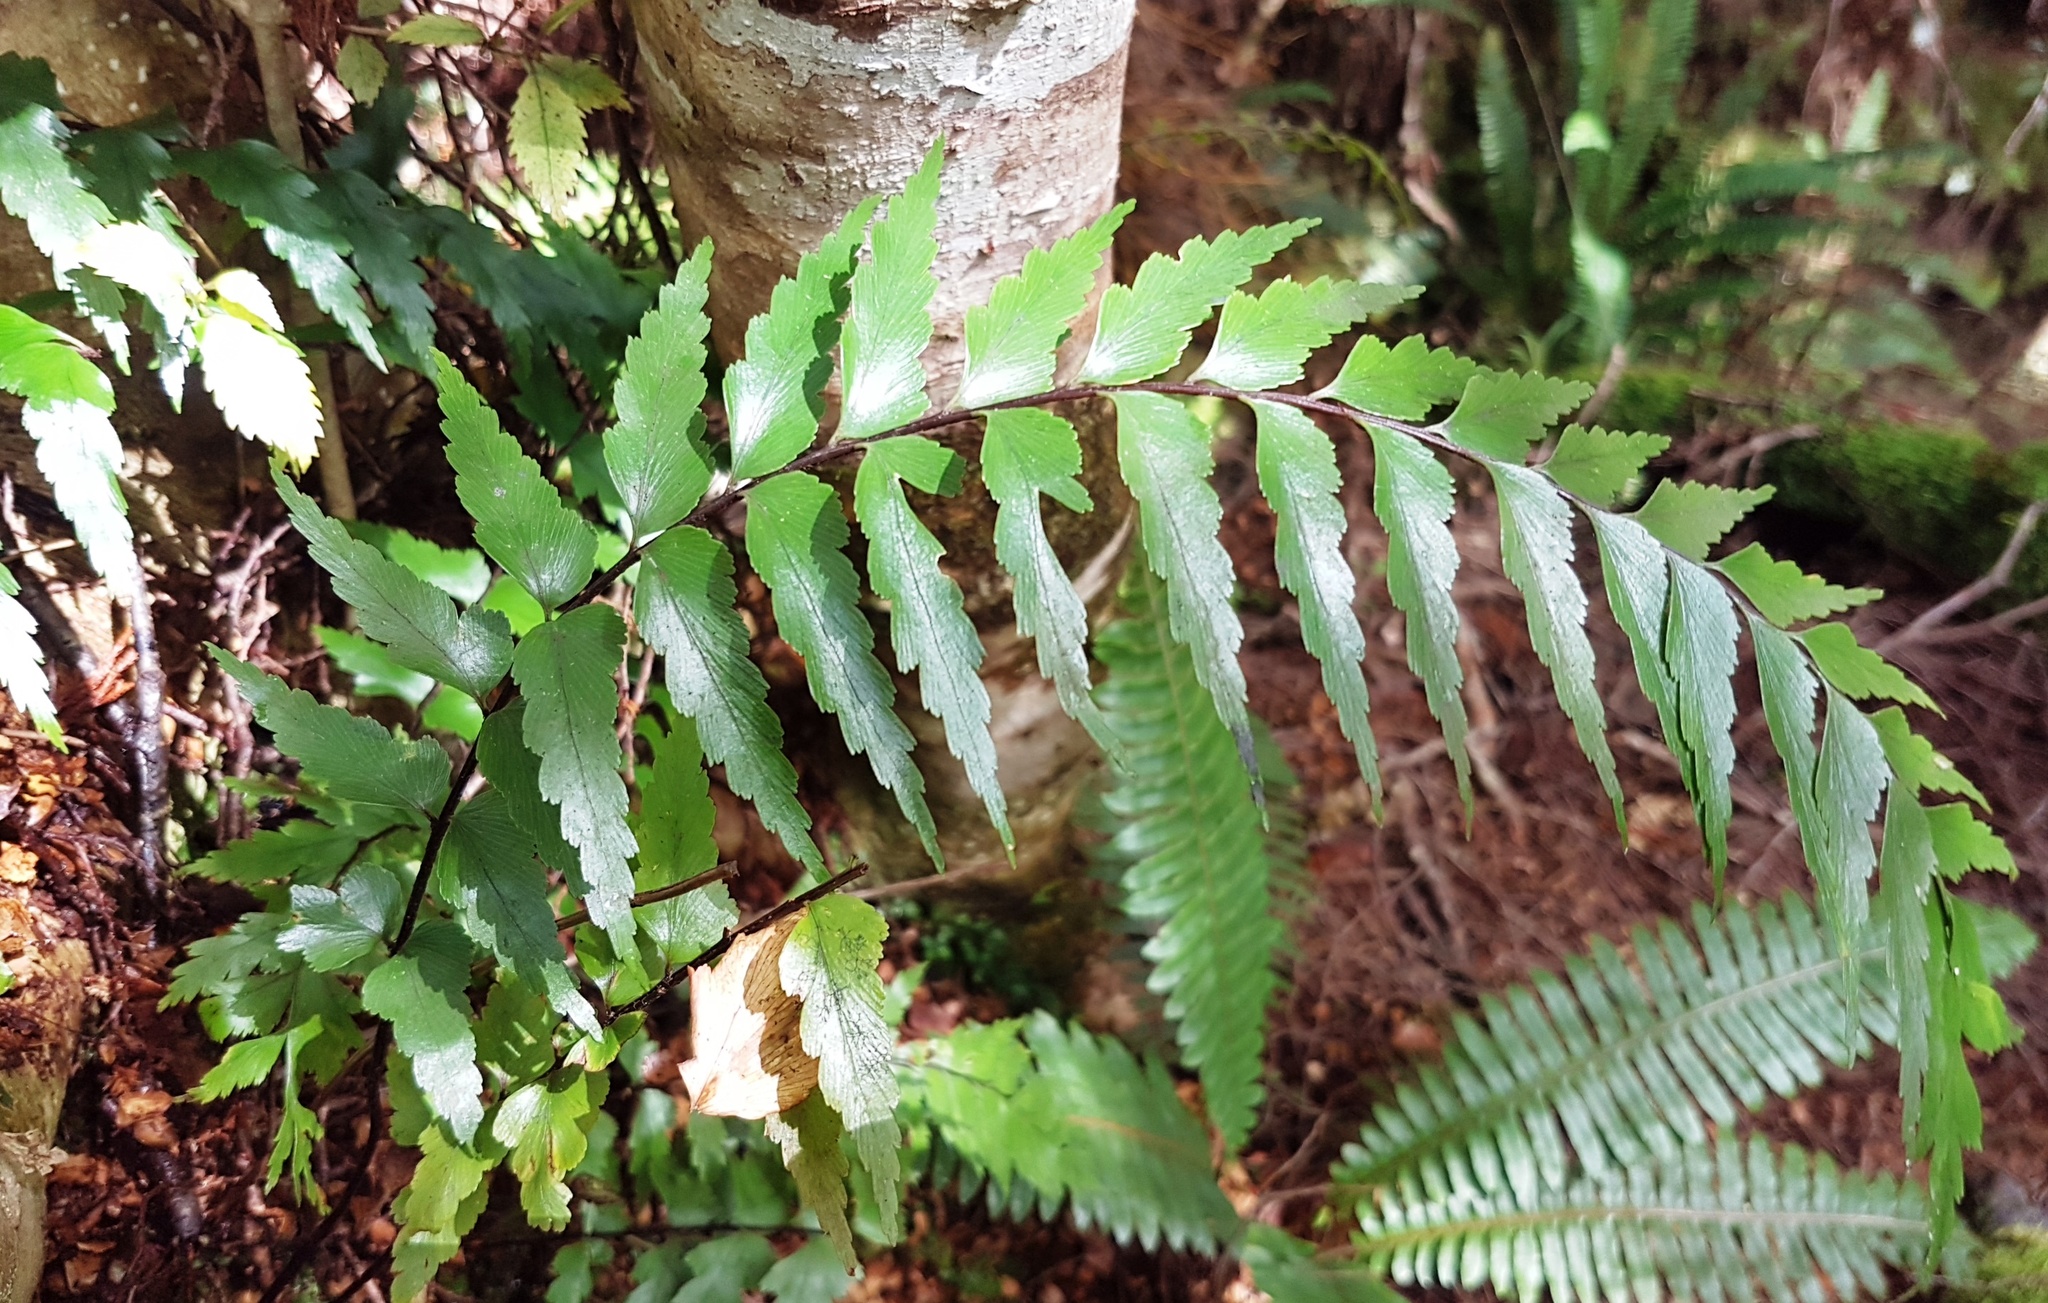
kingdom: Plantae
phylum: Tracheophyta
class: Polypodiopsida
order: Polypodiales
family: Aspleniaceae
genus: Asplenium
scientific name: Asplenium polyodon
